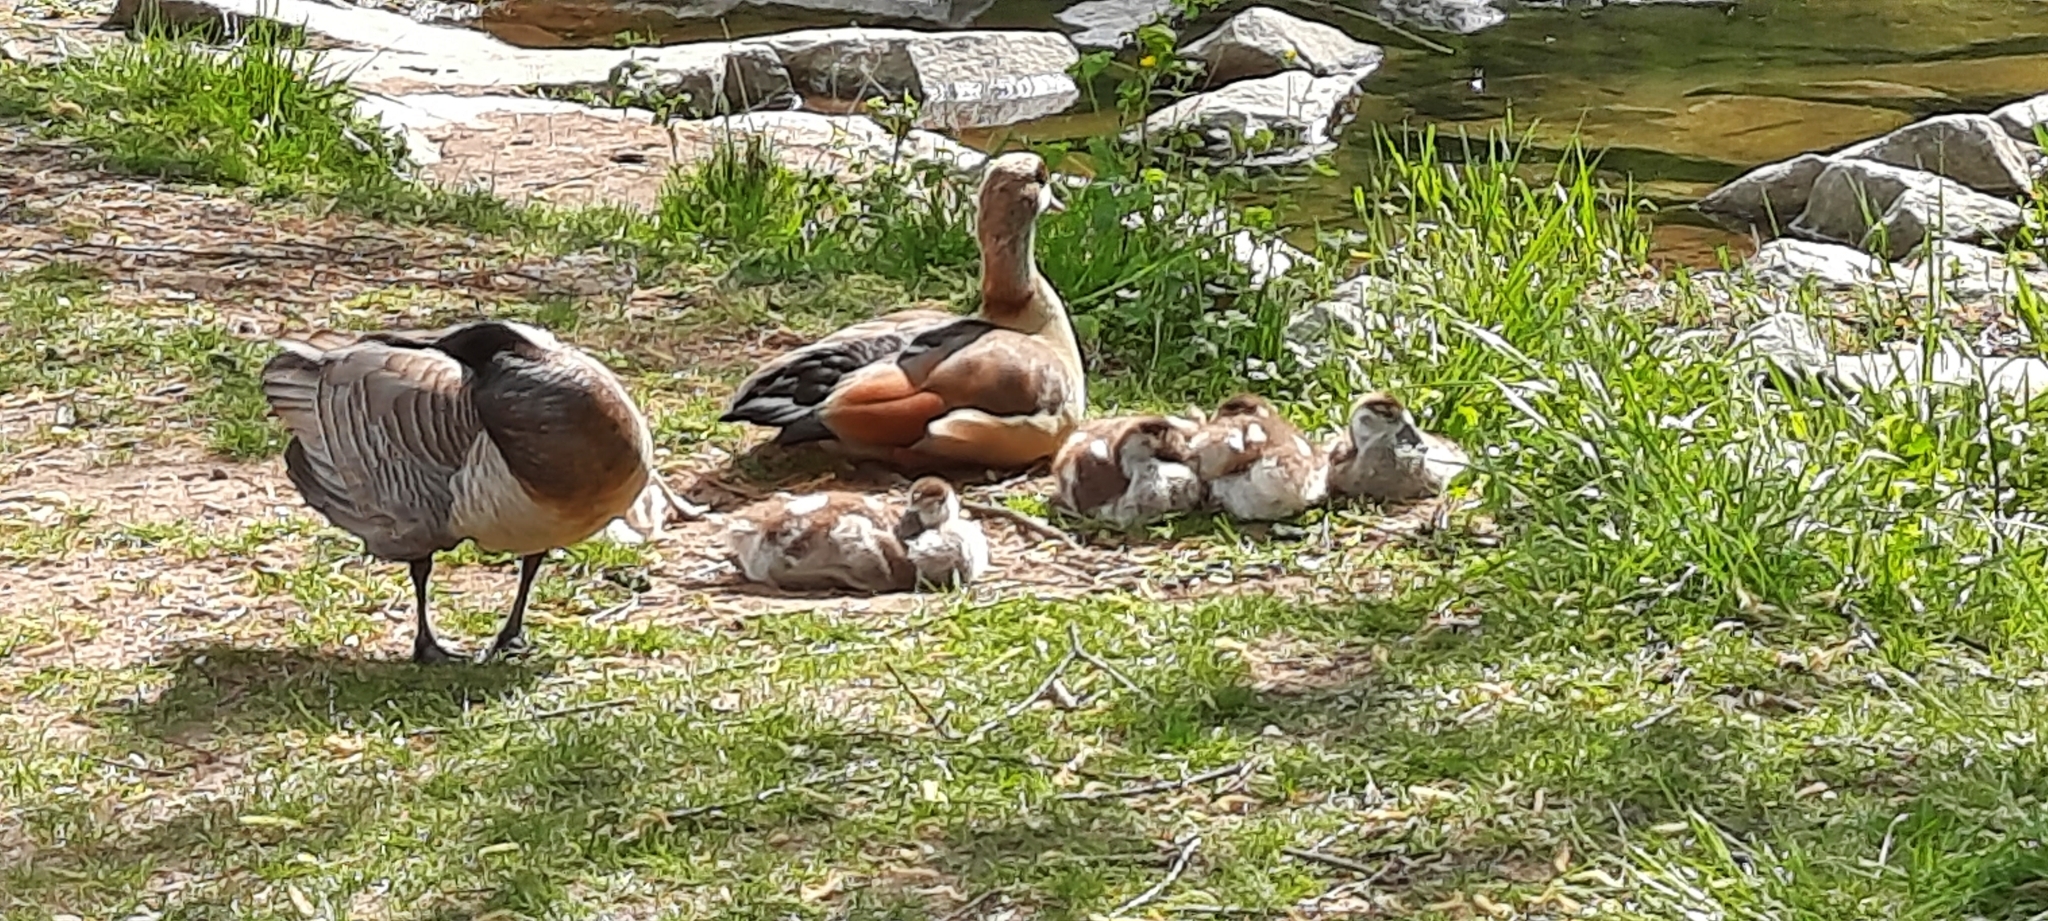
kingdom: Animalia
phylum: Chordata
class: Aves
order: Anseriformes
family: Anatidae
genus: Alopochen
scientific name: Alopochen aegyptiaca
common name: Egyptian goose
